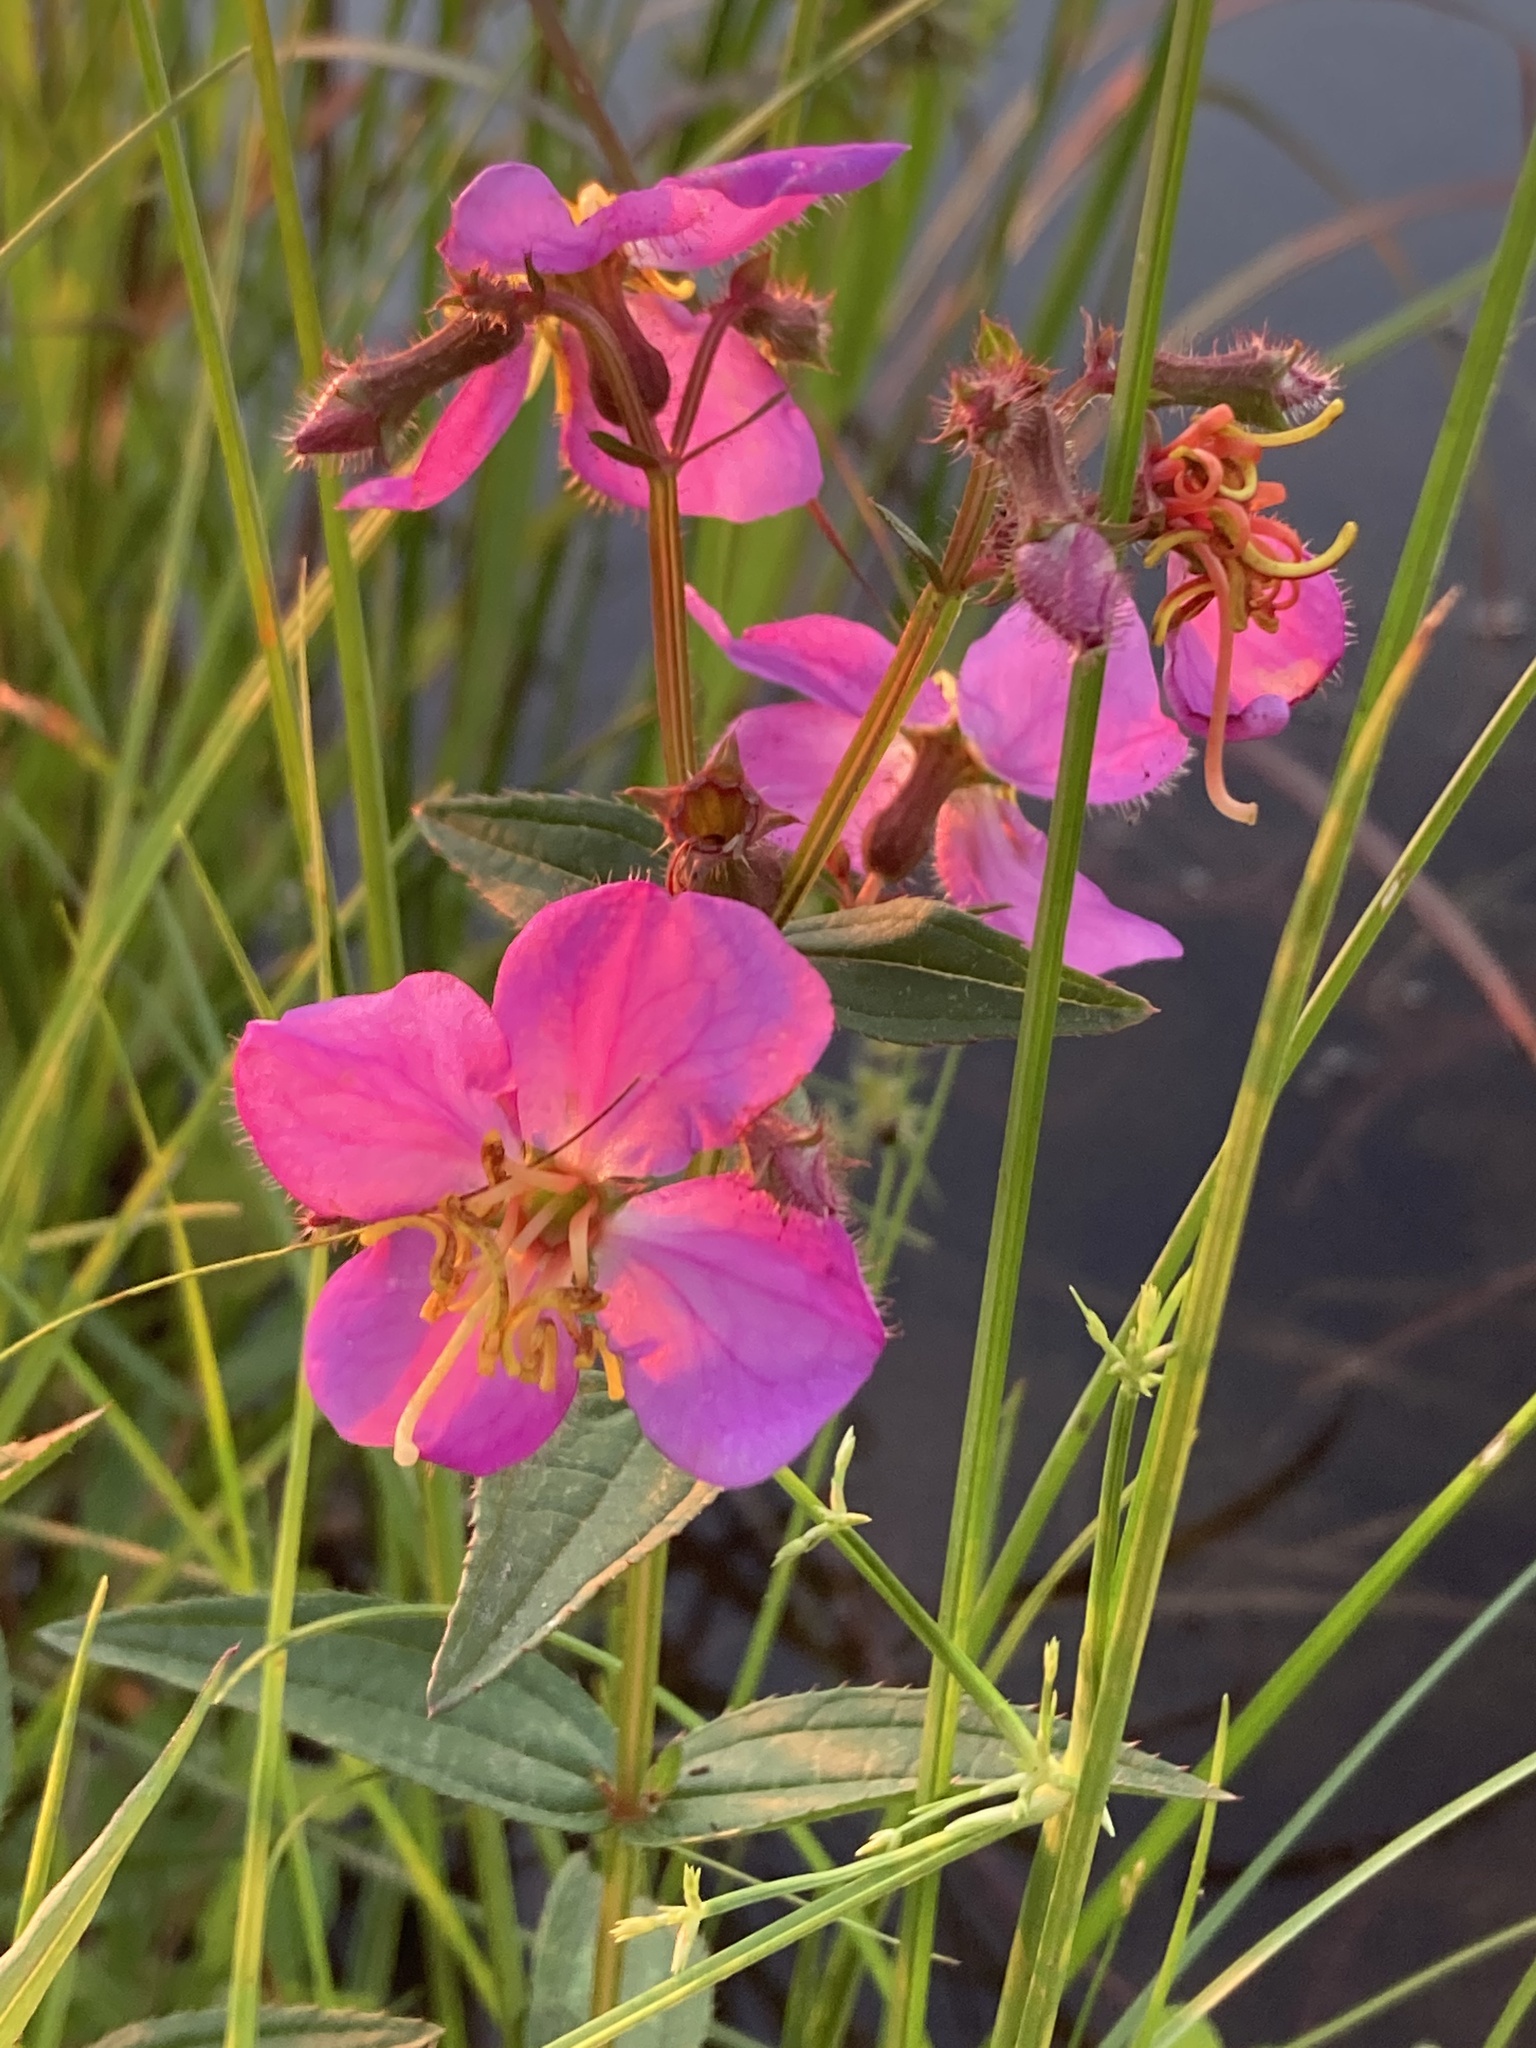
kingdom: Plantae
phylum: Tracheophyta
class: Magnoliopsida
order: Myrtales
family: Melastomataceae
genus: Rhexia
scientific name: Rhexia virginica
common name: Common meadow beauty
